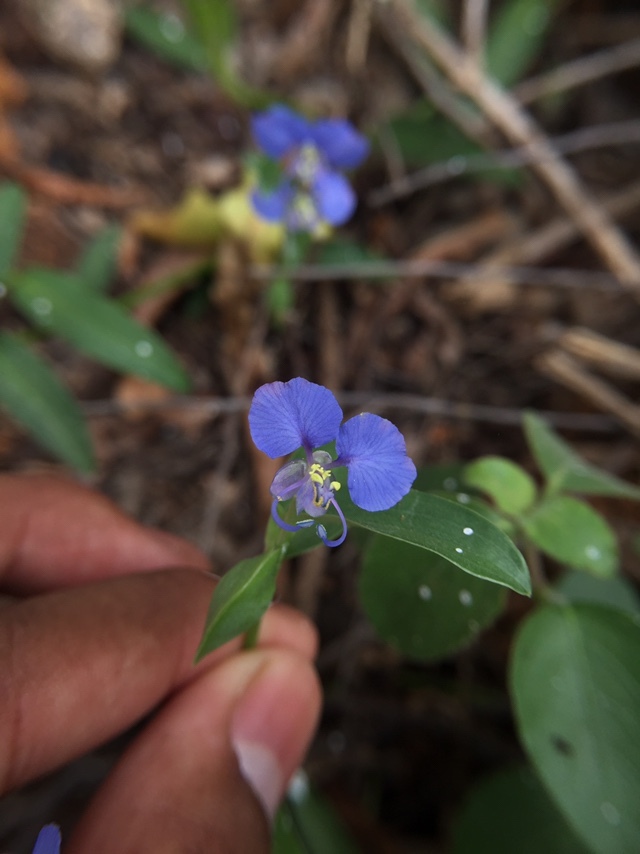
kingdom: Plantae
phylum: Tracheophyta
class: Liliopsida
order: Commelinales
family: Commelinaceae
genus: Commelina
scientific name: Commelina forskaolii
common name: Rat's ear
